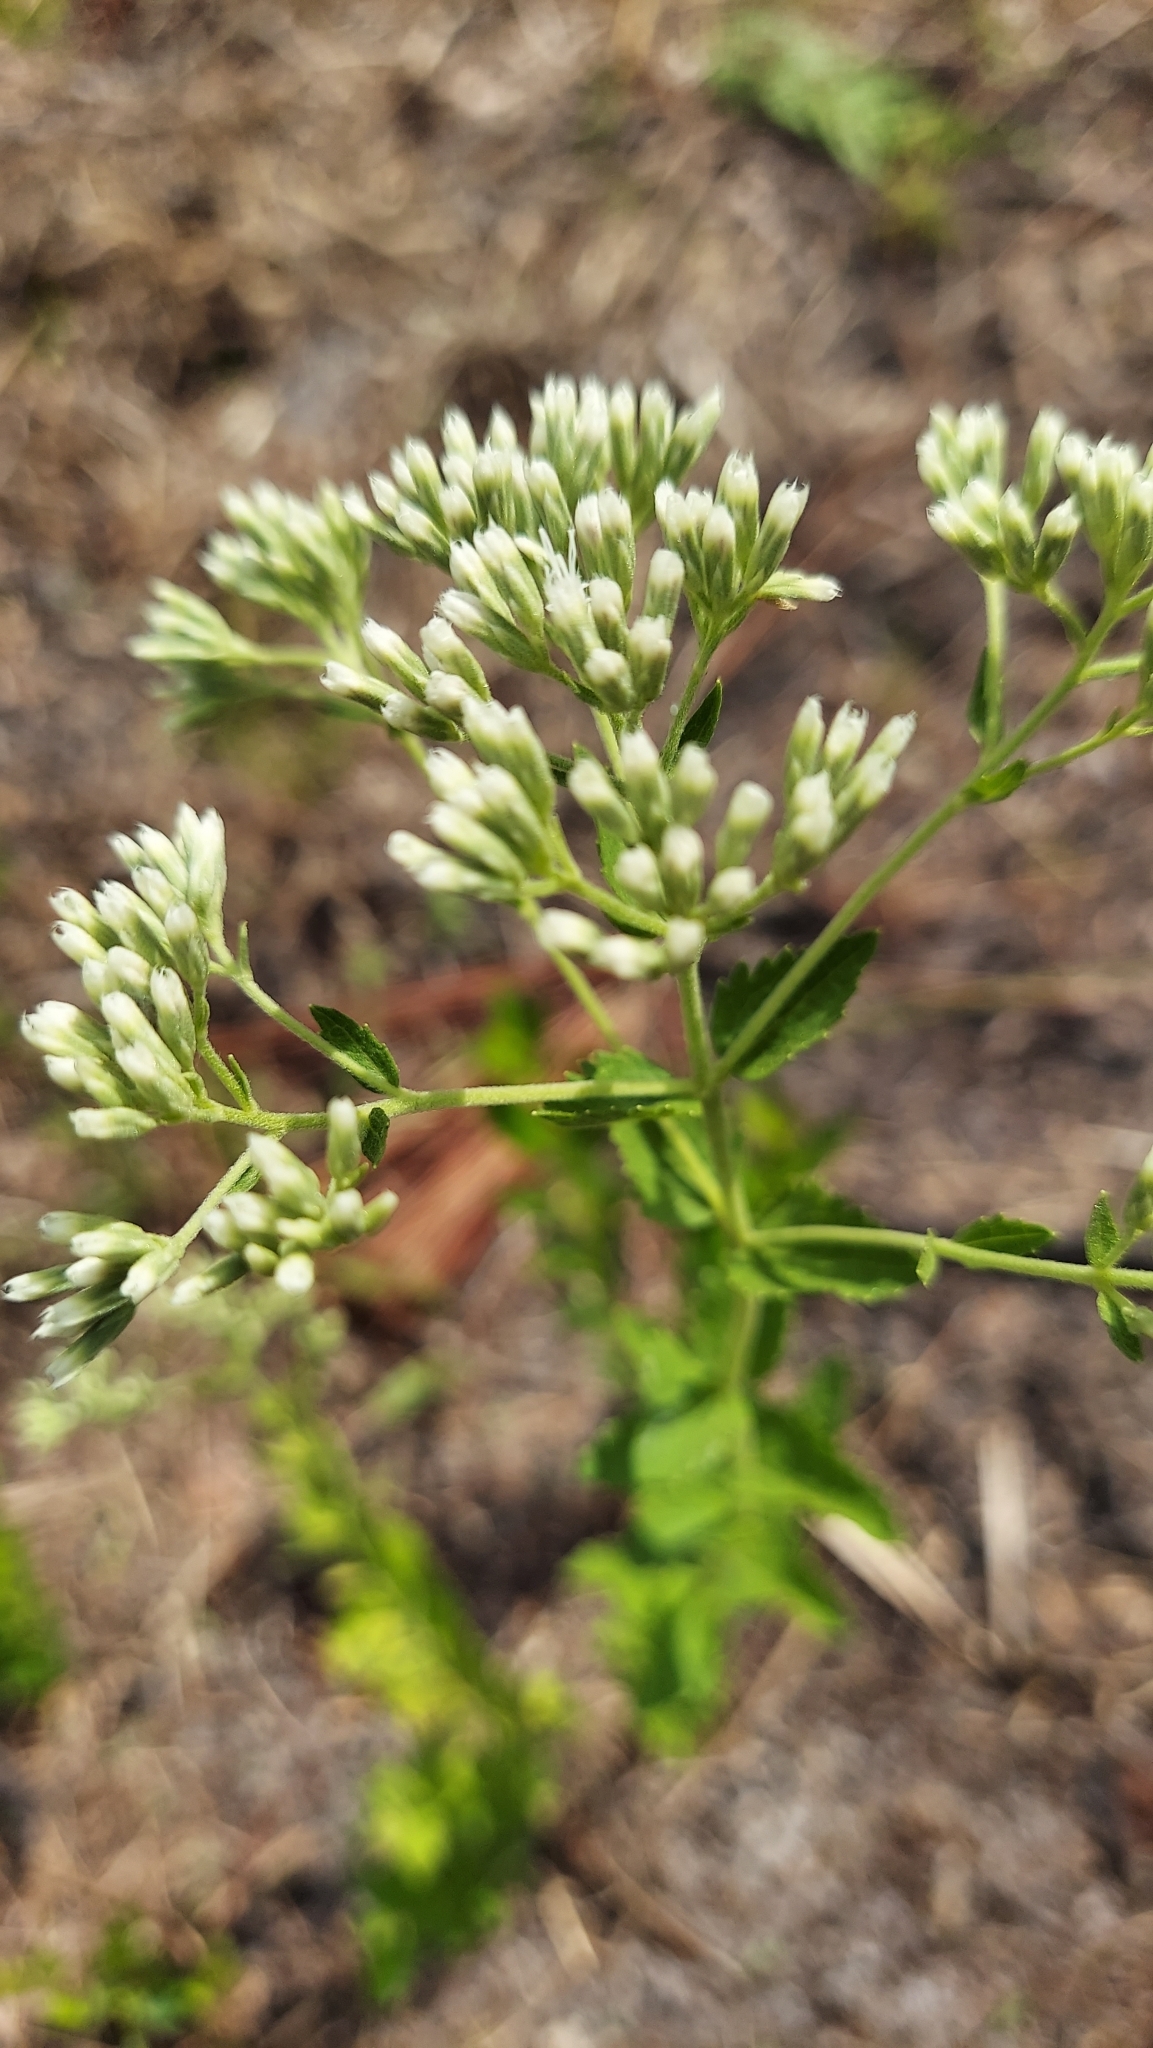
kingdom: Plantae
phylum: Tracheophyta
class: Magnoliopsida
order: Asterales
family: Asteraceae
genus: Eupatorium
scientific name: Eupatorium rotundifolium
